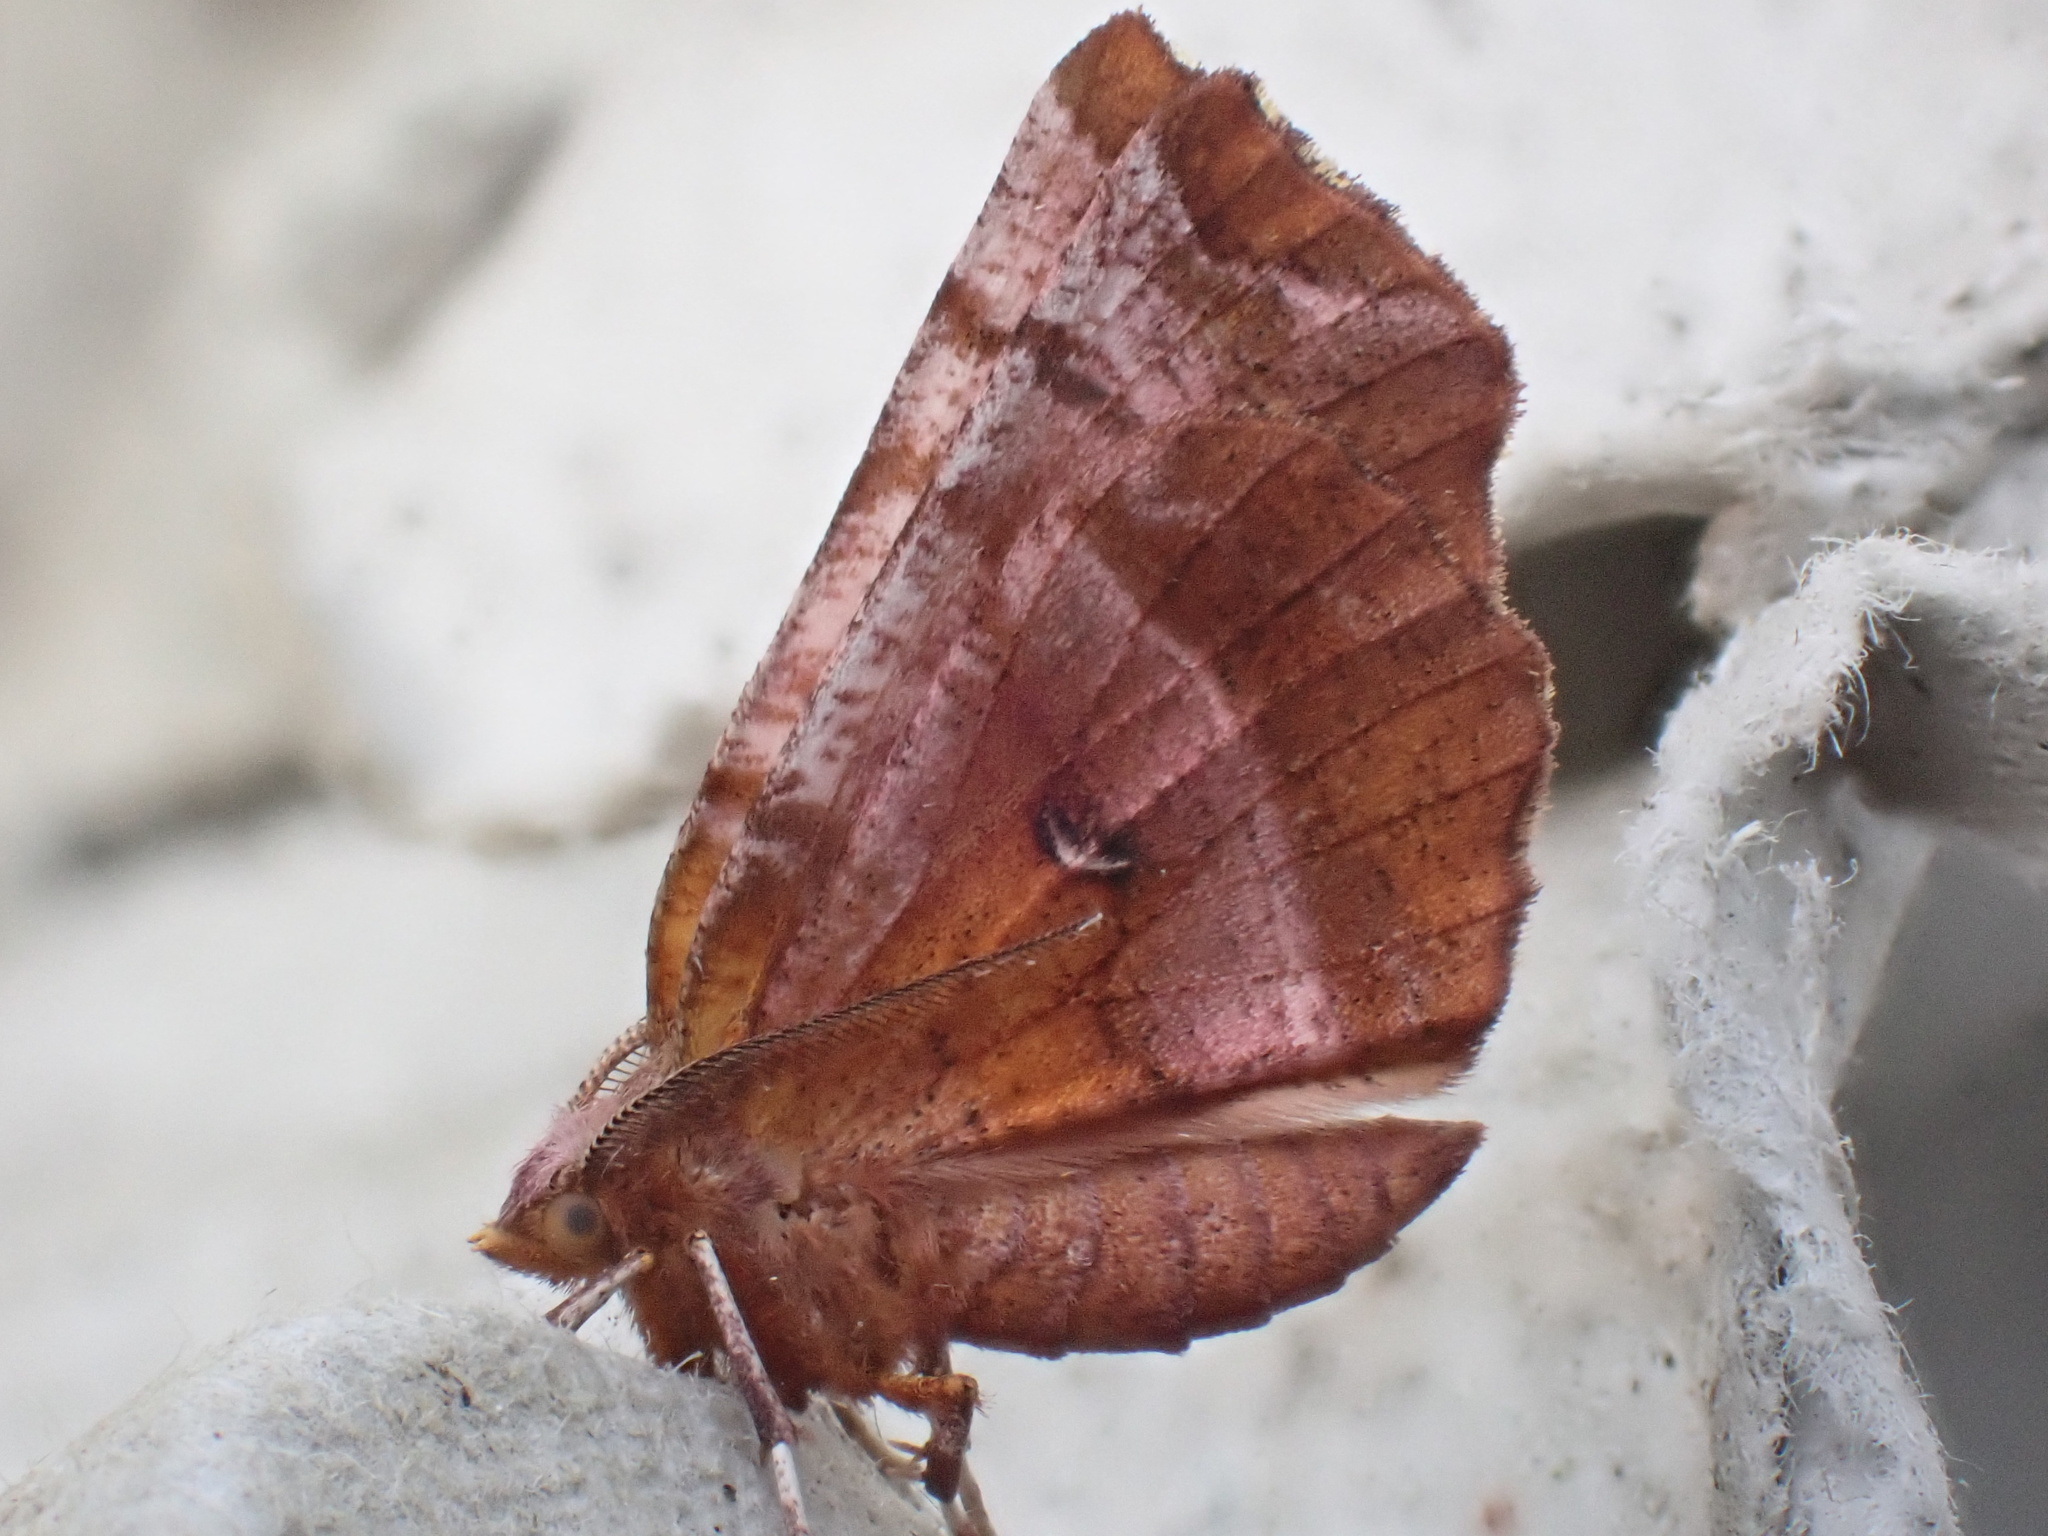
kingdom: Animalia
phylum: Arthropoda
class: Insecta
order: Lepidoptera
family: Geometridae
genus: Selenia
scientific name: Selenia dentaria
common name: Early thorn
